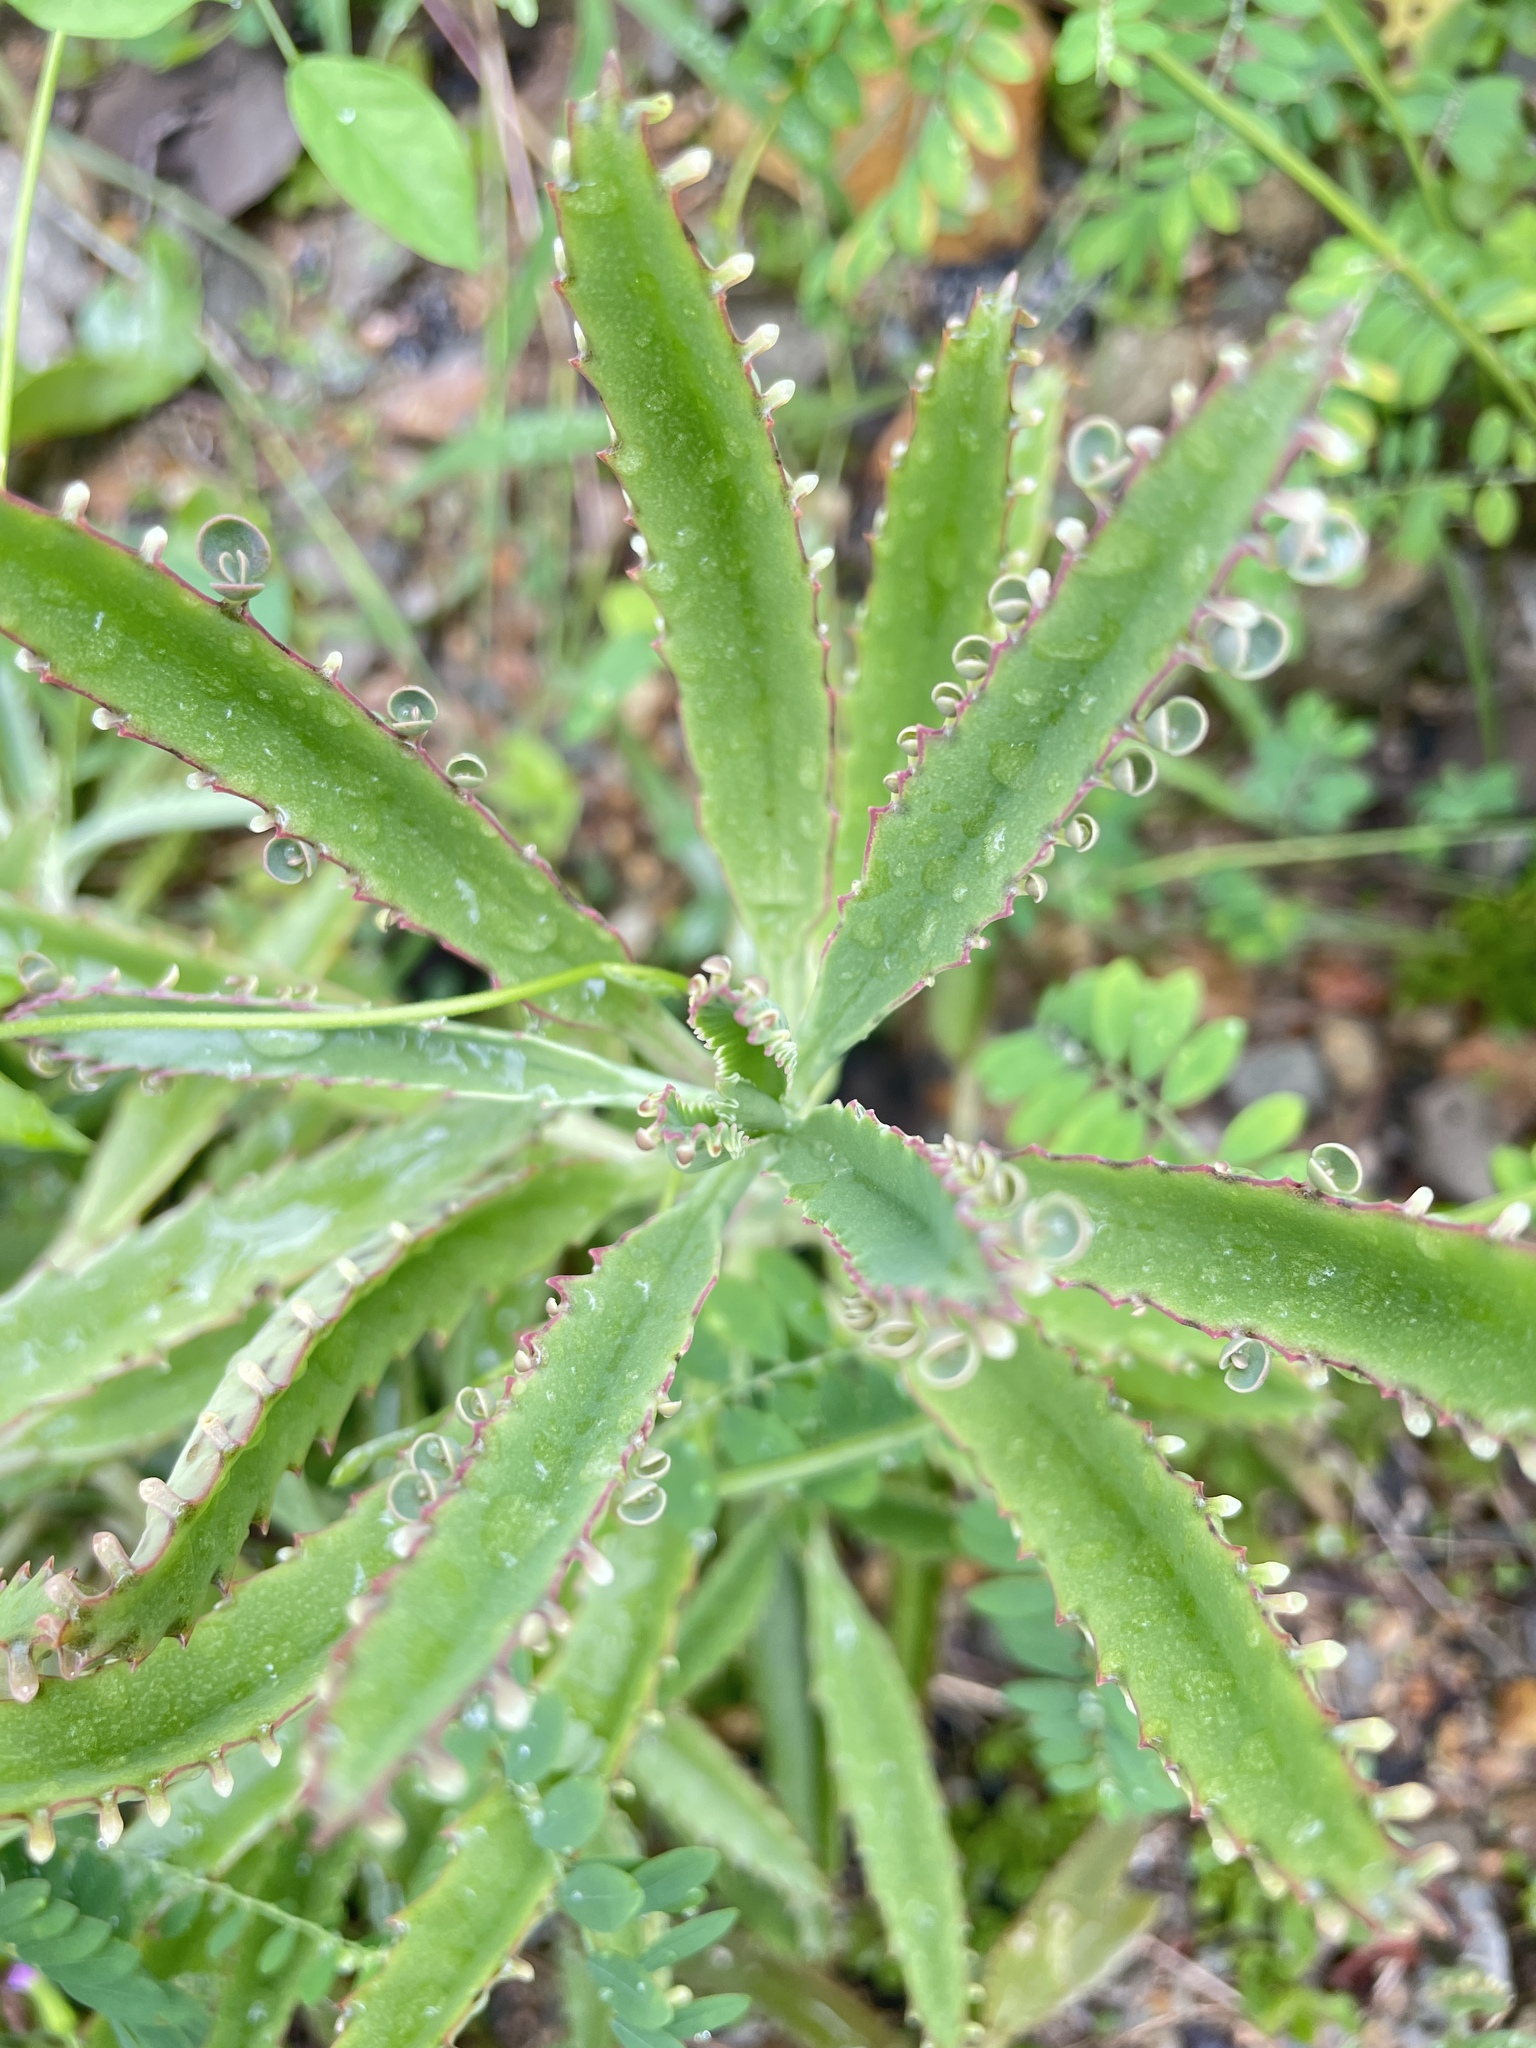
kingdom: Plantae
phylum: Tracheophyta
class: Magnoliopsida
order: Saxifragales
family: Crassulaceae
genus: Kalanchoe
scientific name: Kalanchoe houghtonii
